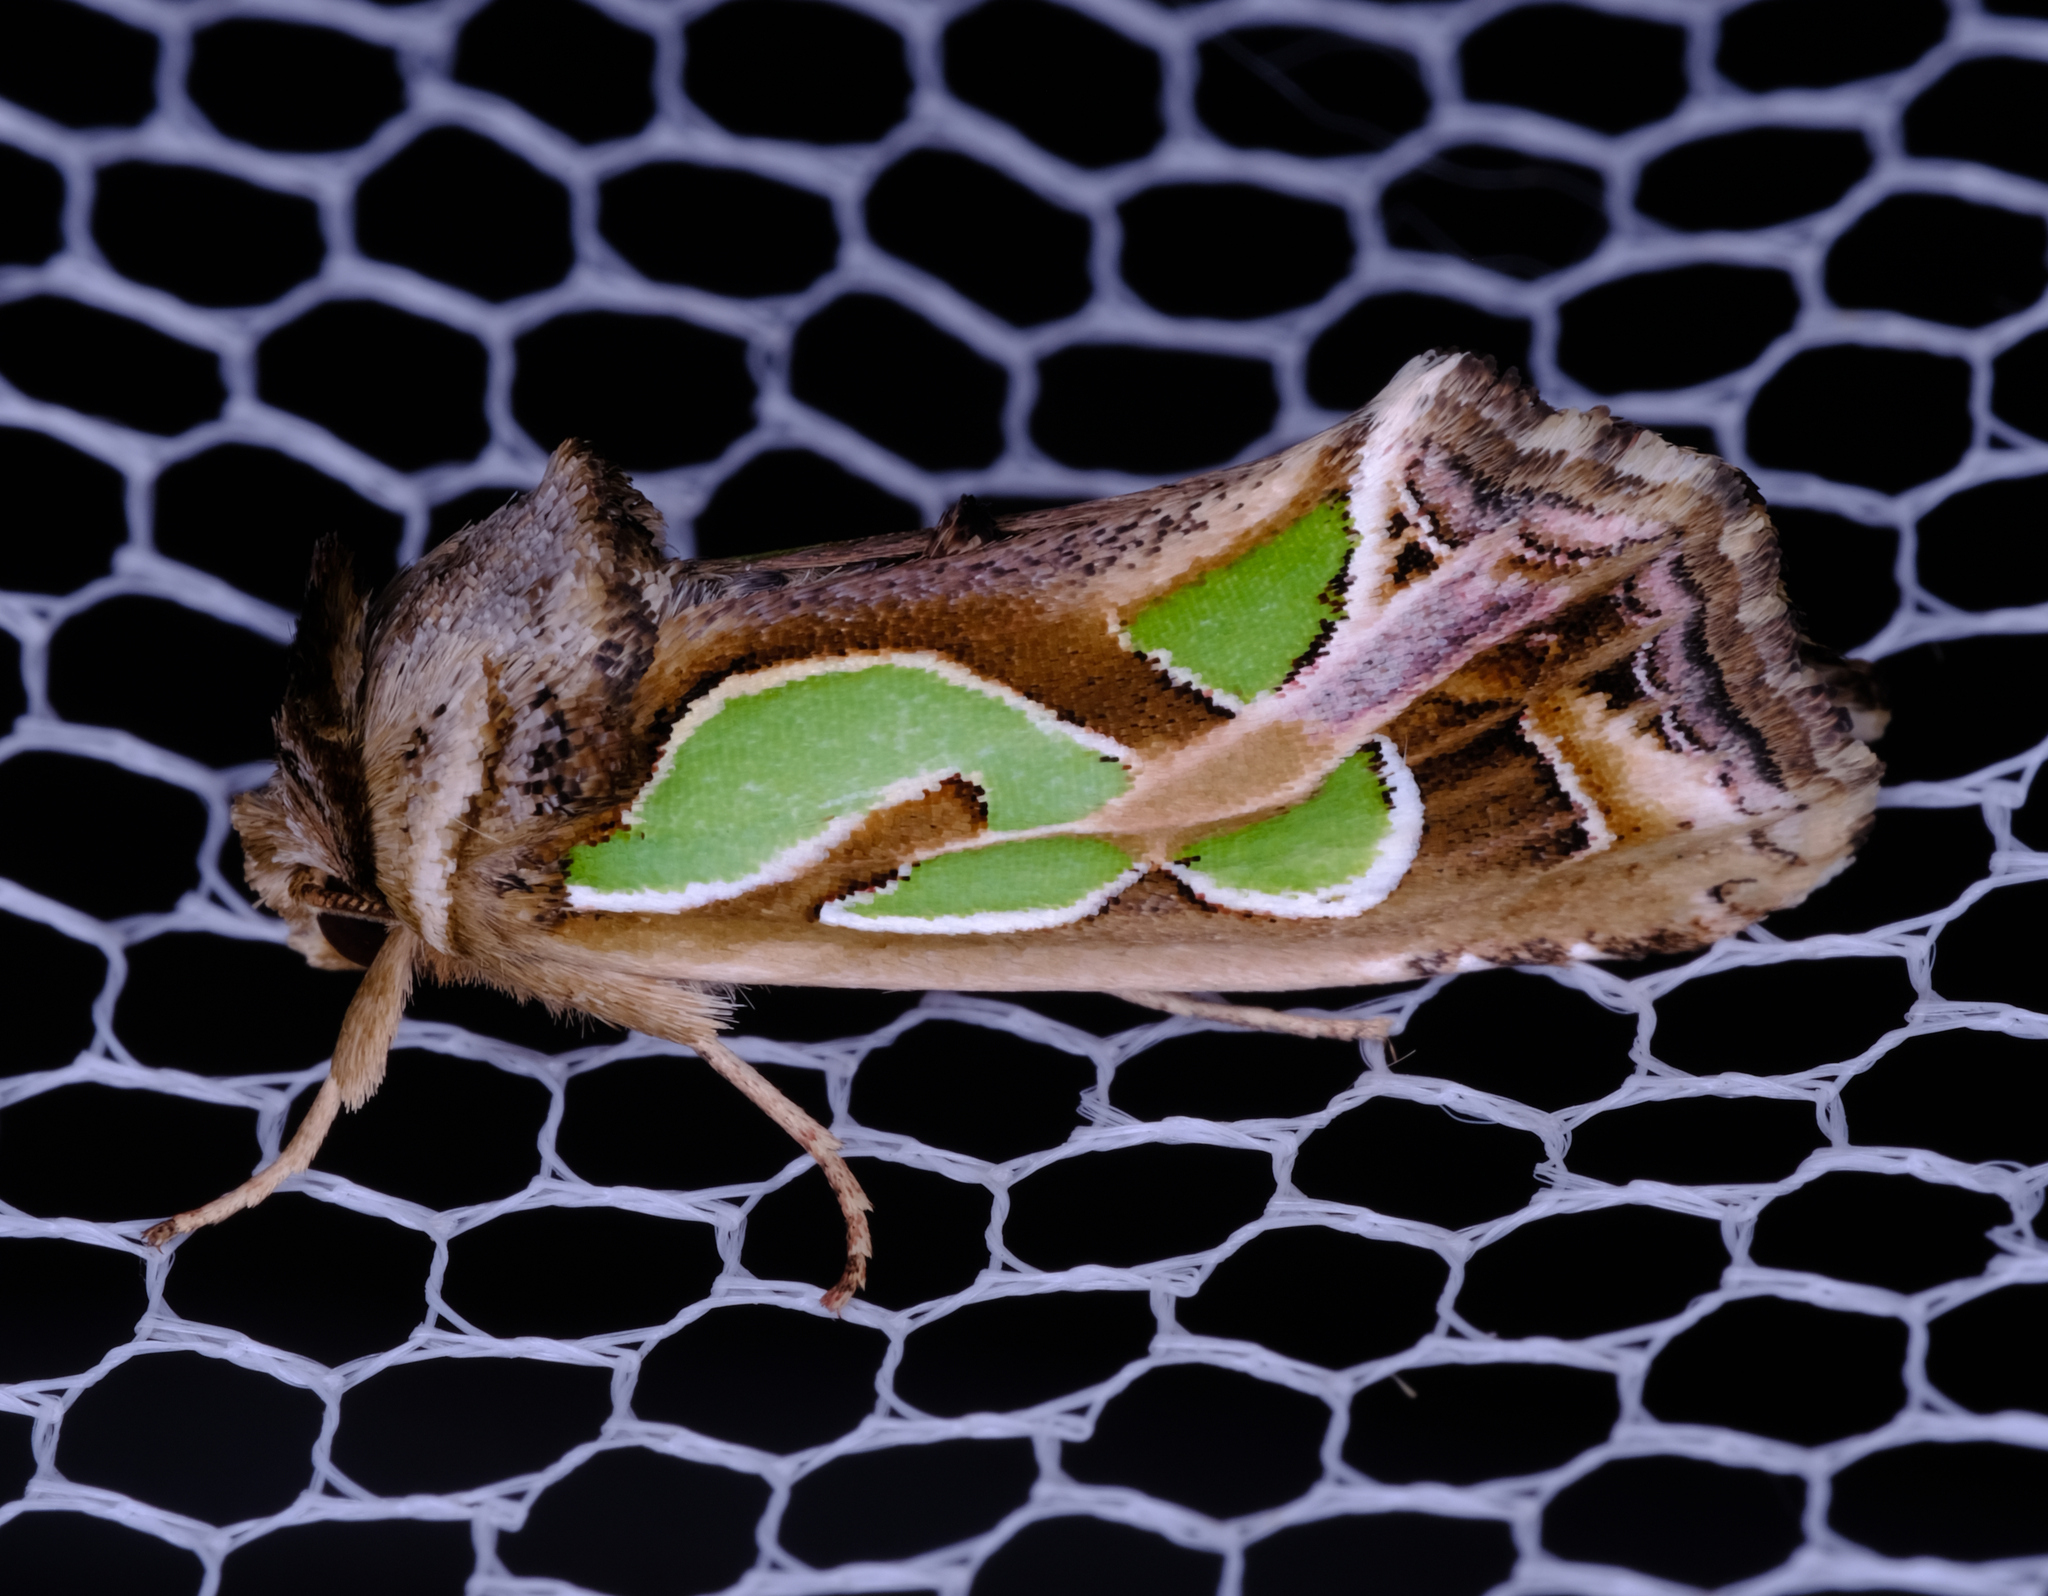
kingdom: Animalia
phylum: Arthropoda
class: Insecta
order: Lepidoptera
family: Noctuidae
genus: Cosmodes
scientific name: Cosmodes elegans
